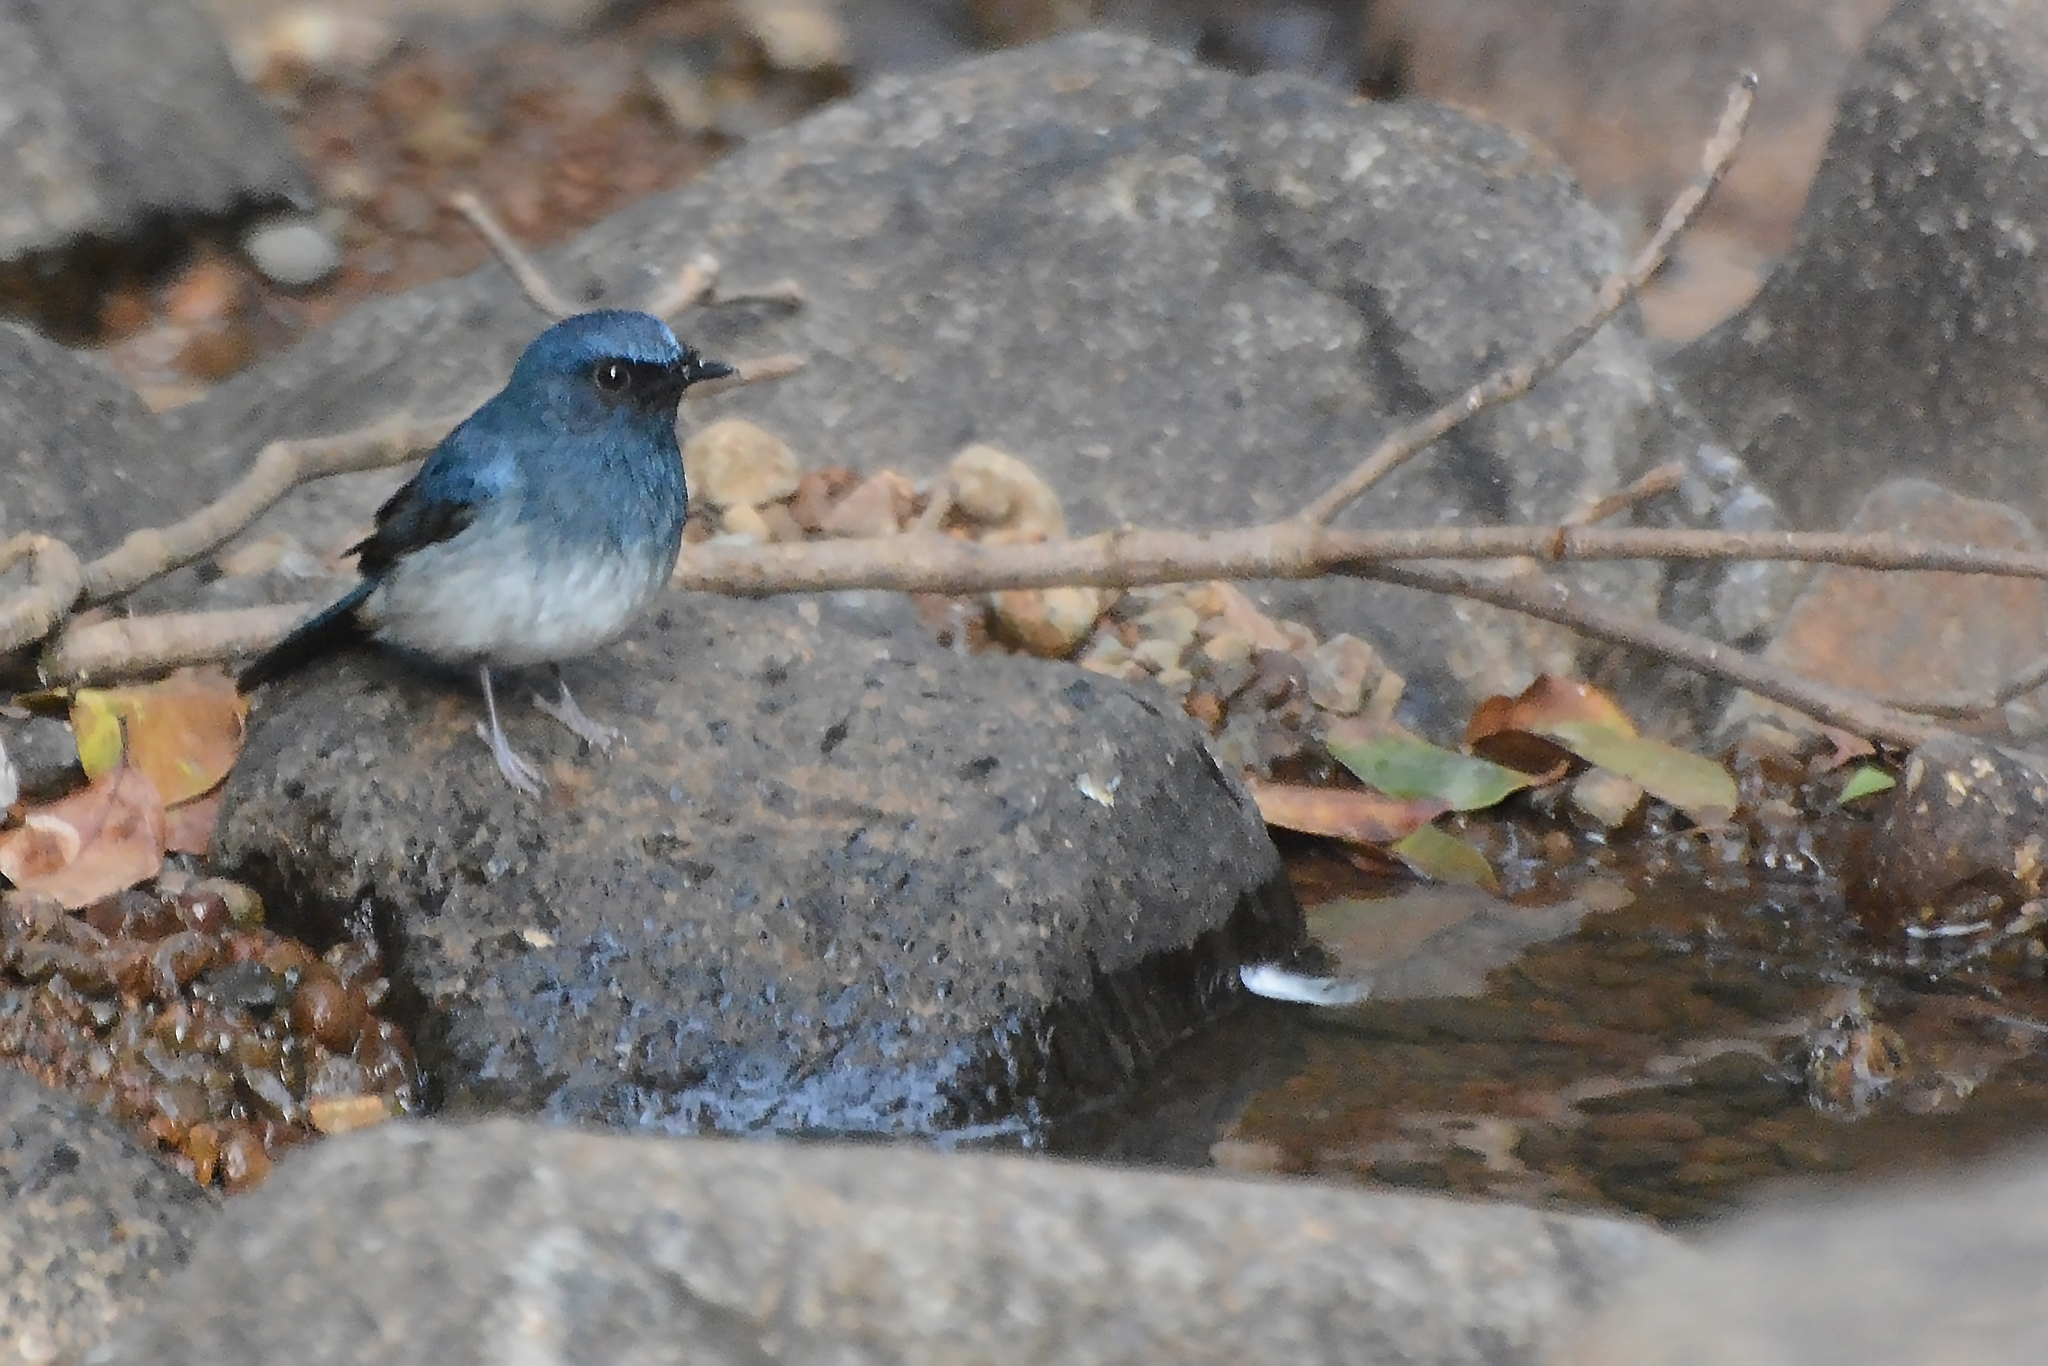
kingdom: Animalia
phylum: Chordata
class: Aves
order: Passeriformes
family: Muscicapidae
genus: Cyornis
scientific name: Cyornis pallidipes
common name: White-bellied blue flycatcher
